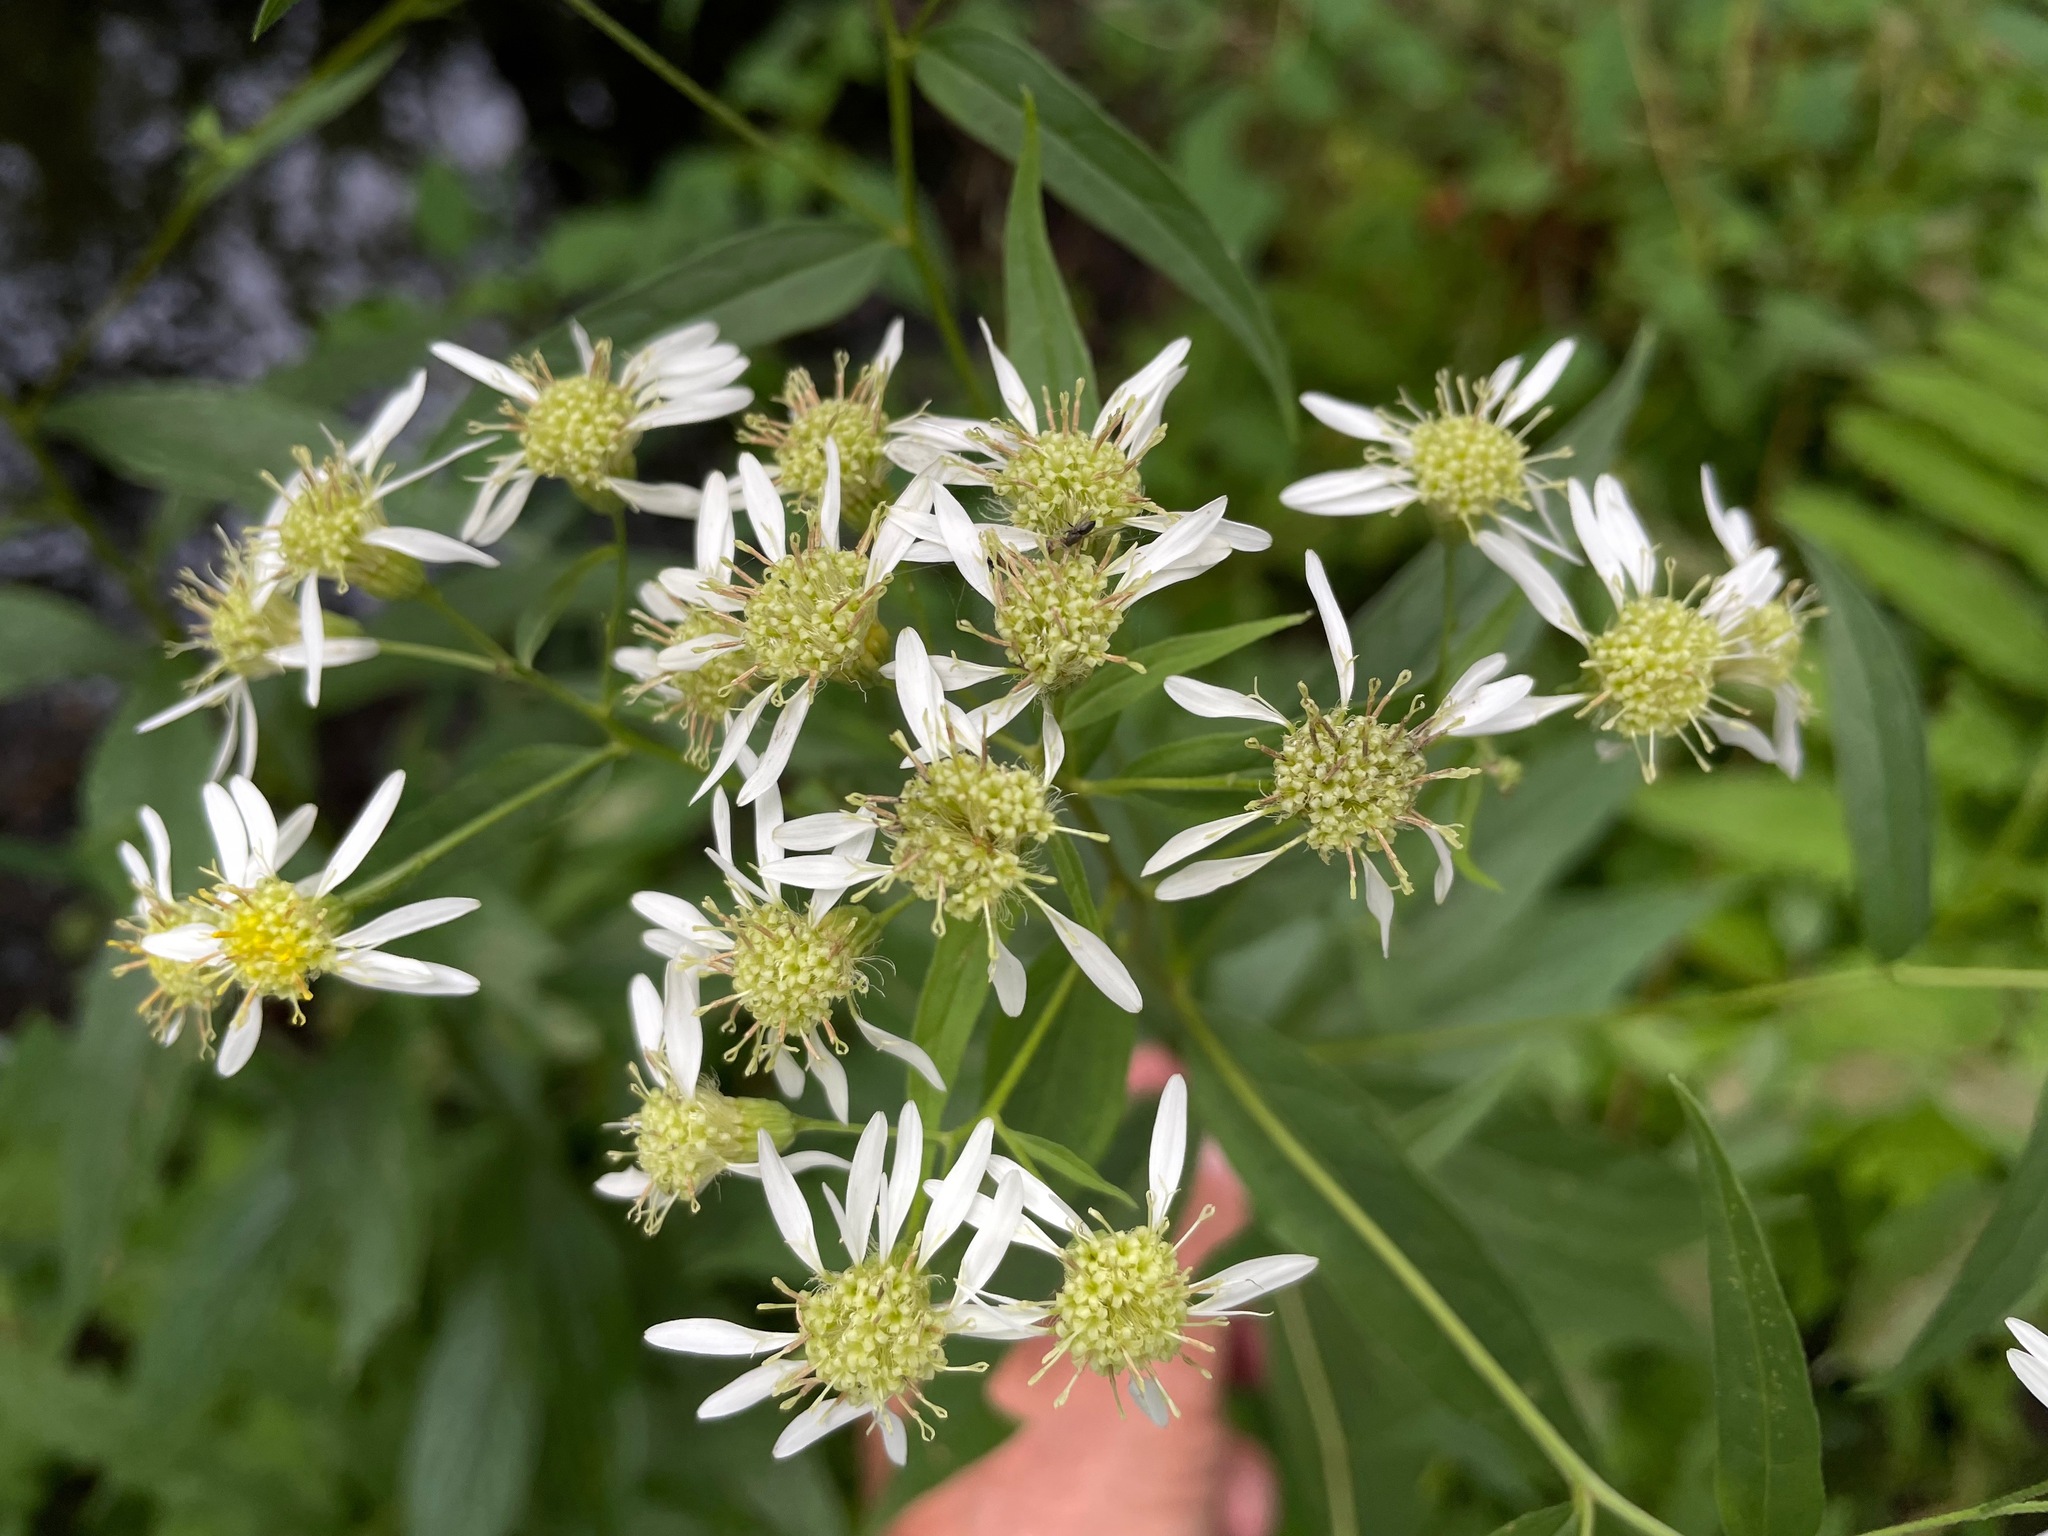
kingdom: Plantae
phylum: Tracheophyta
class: Magnoliopsida
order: Asterales
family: Asteraceae
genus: Doellingeria
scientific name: Doellingeria umbellata
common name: Flat-top white aster
